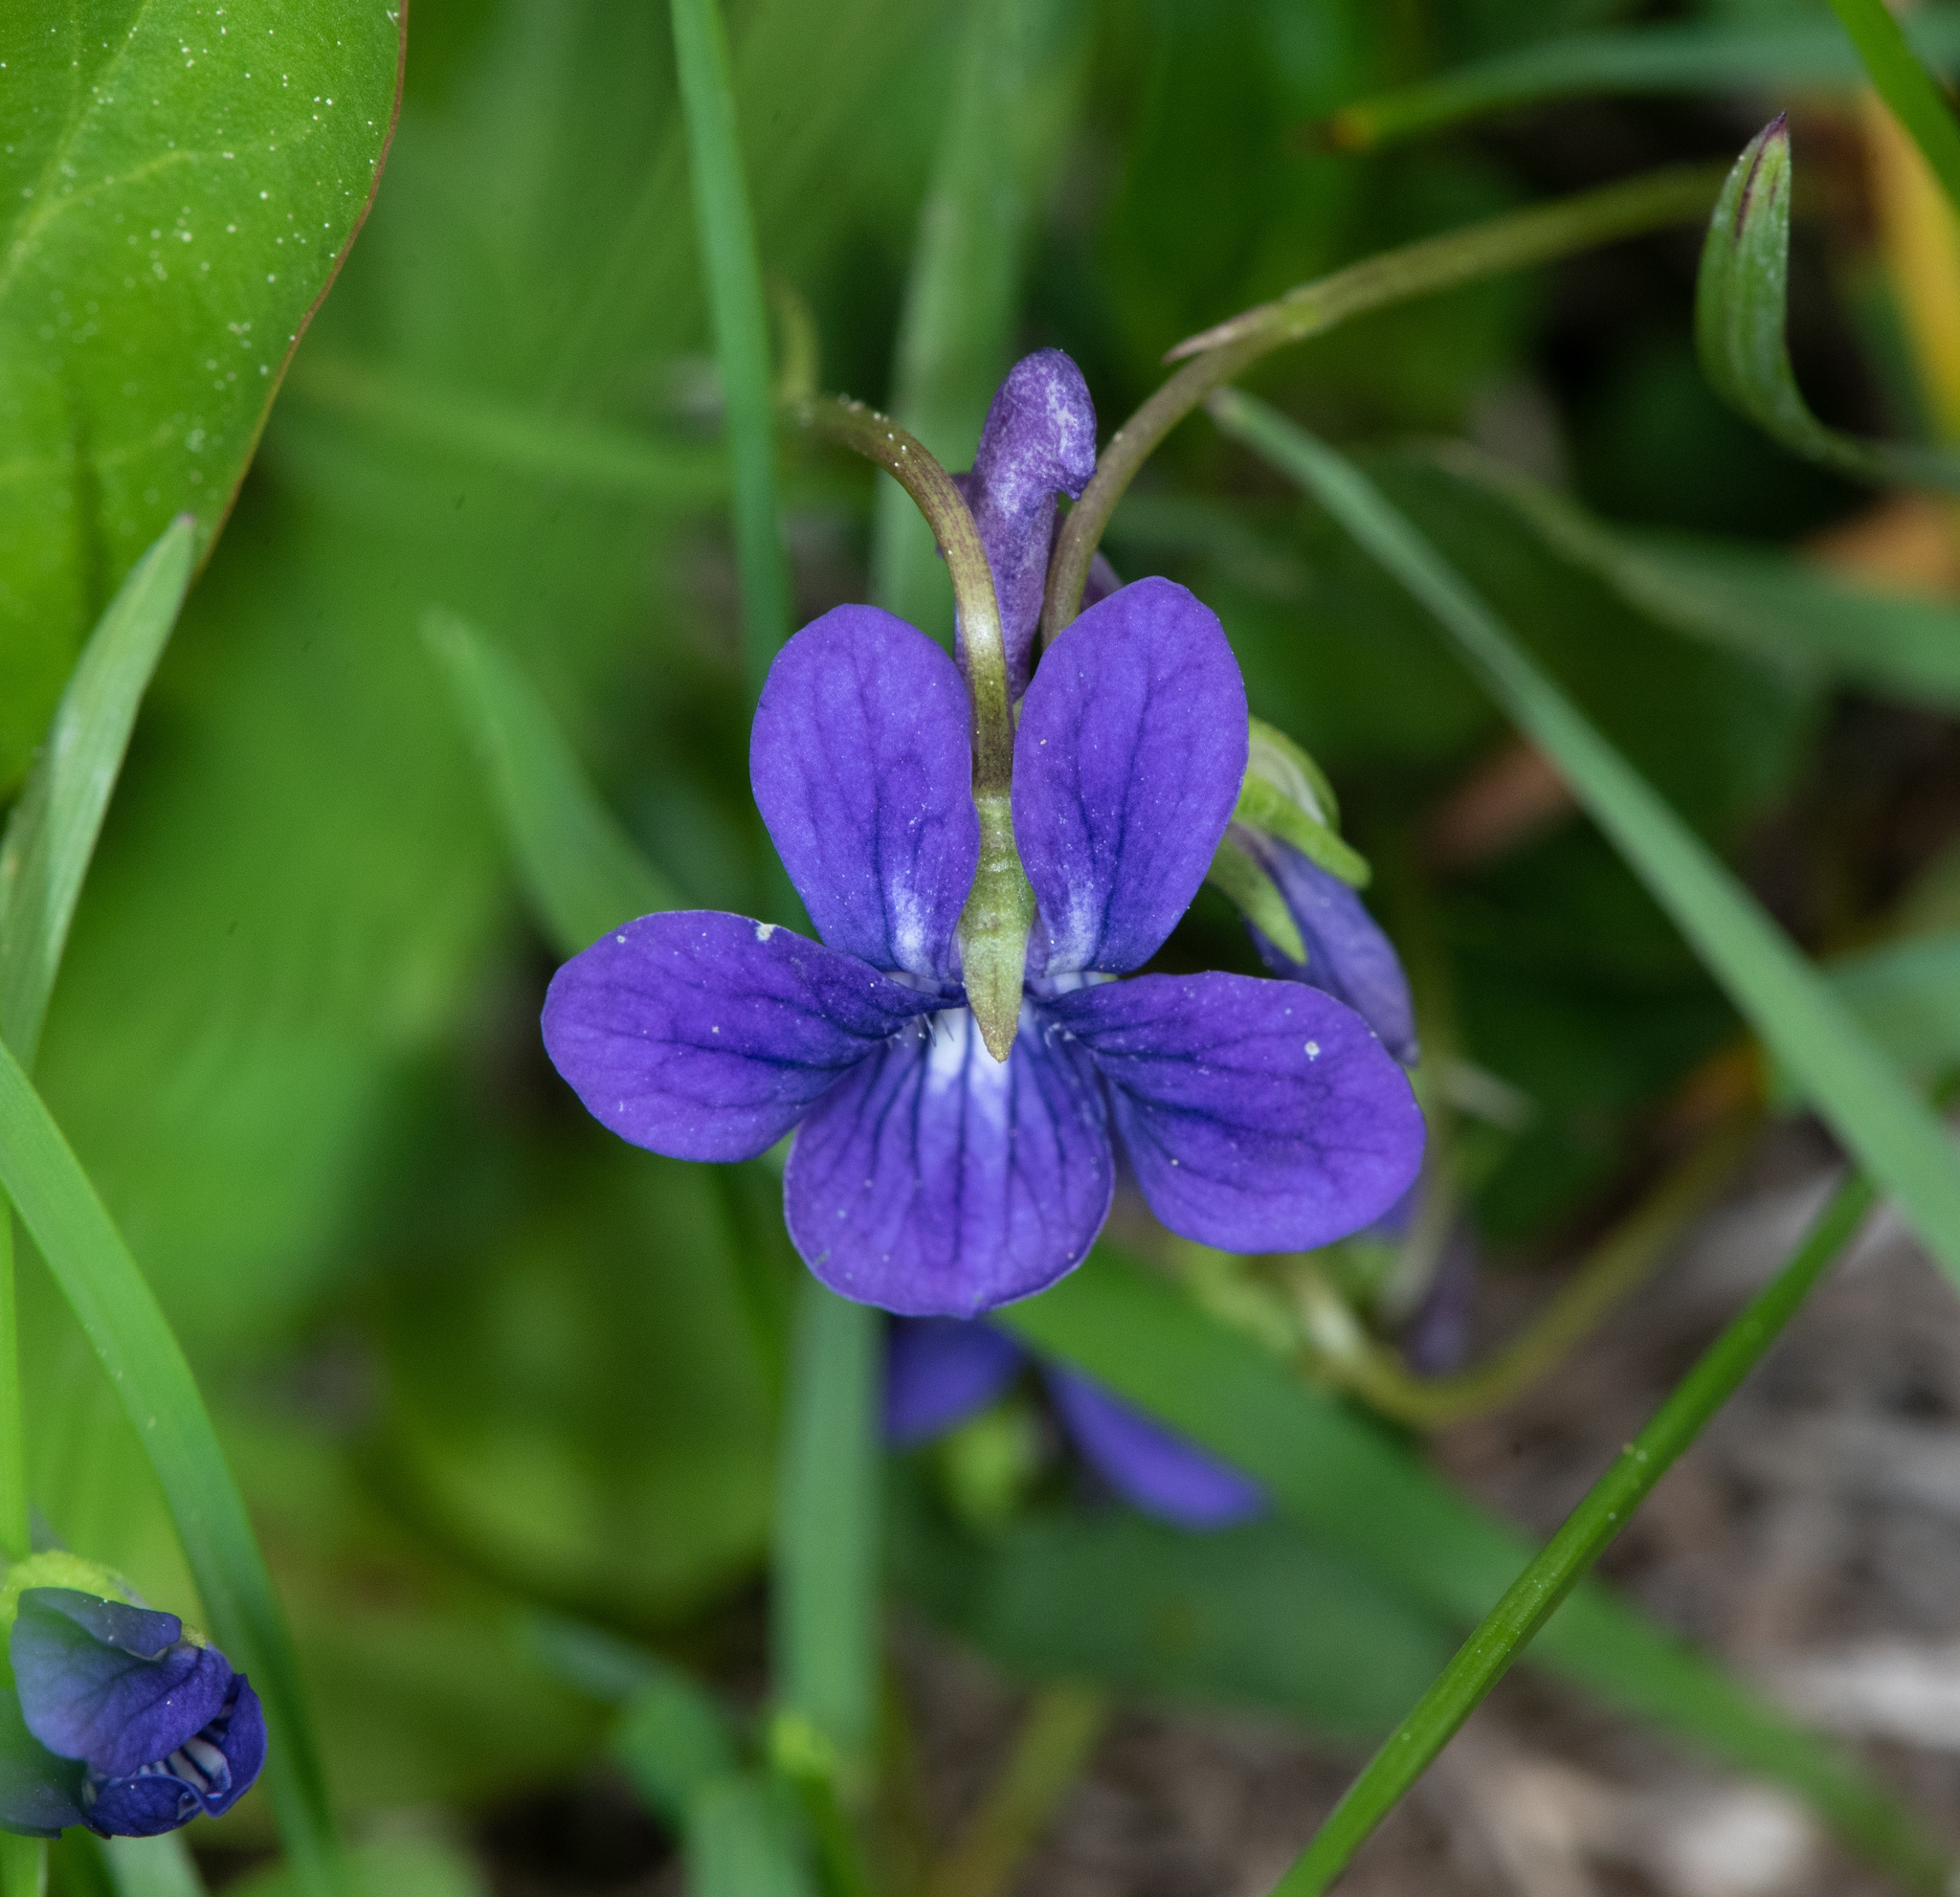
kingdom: Plantae
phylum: Tracheophyta
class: Magnoliopsida
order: Malpighiales
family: Violaceae
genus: Viola
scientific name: Viola adunca
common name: Sand violet
